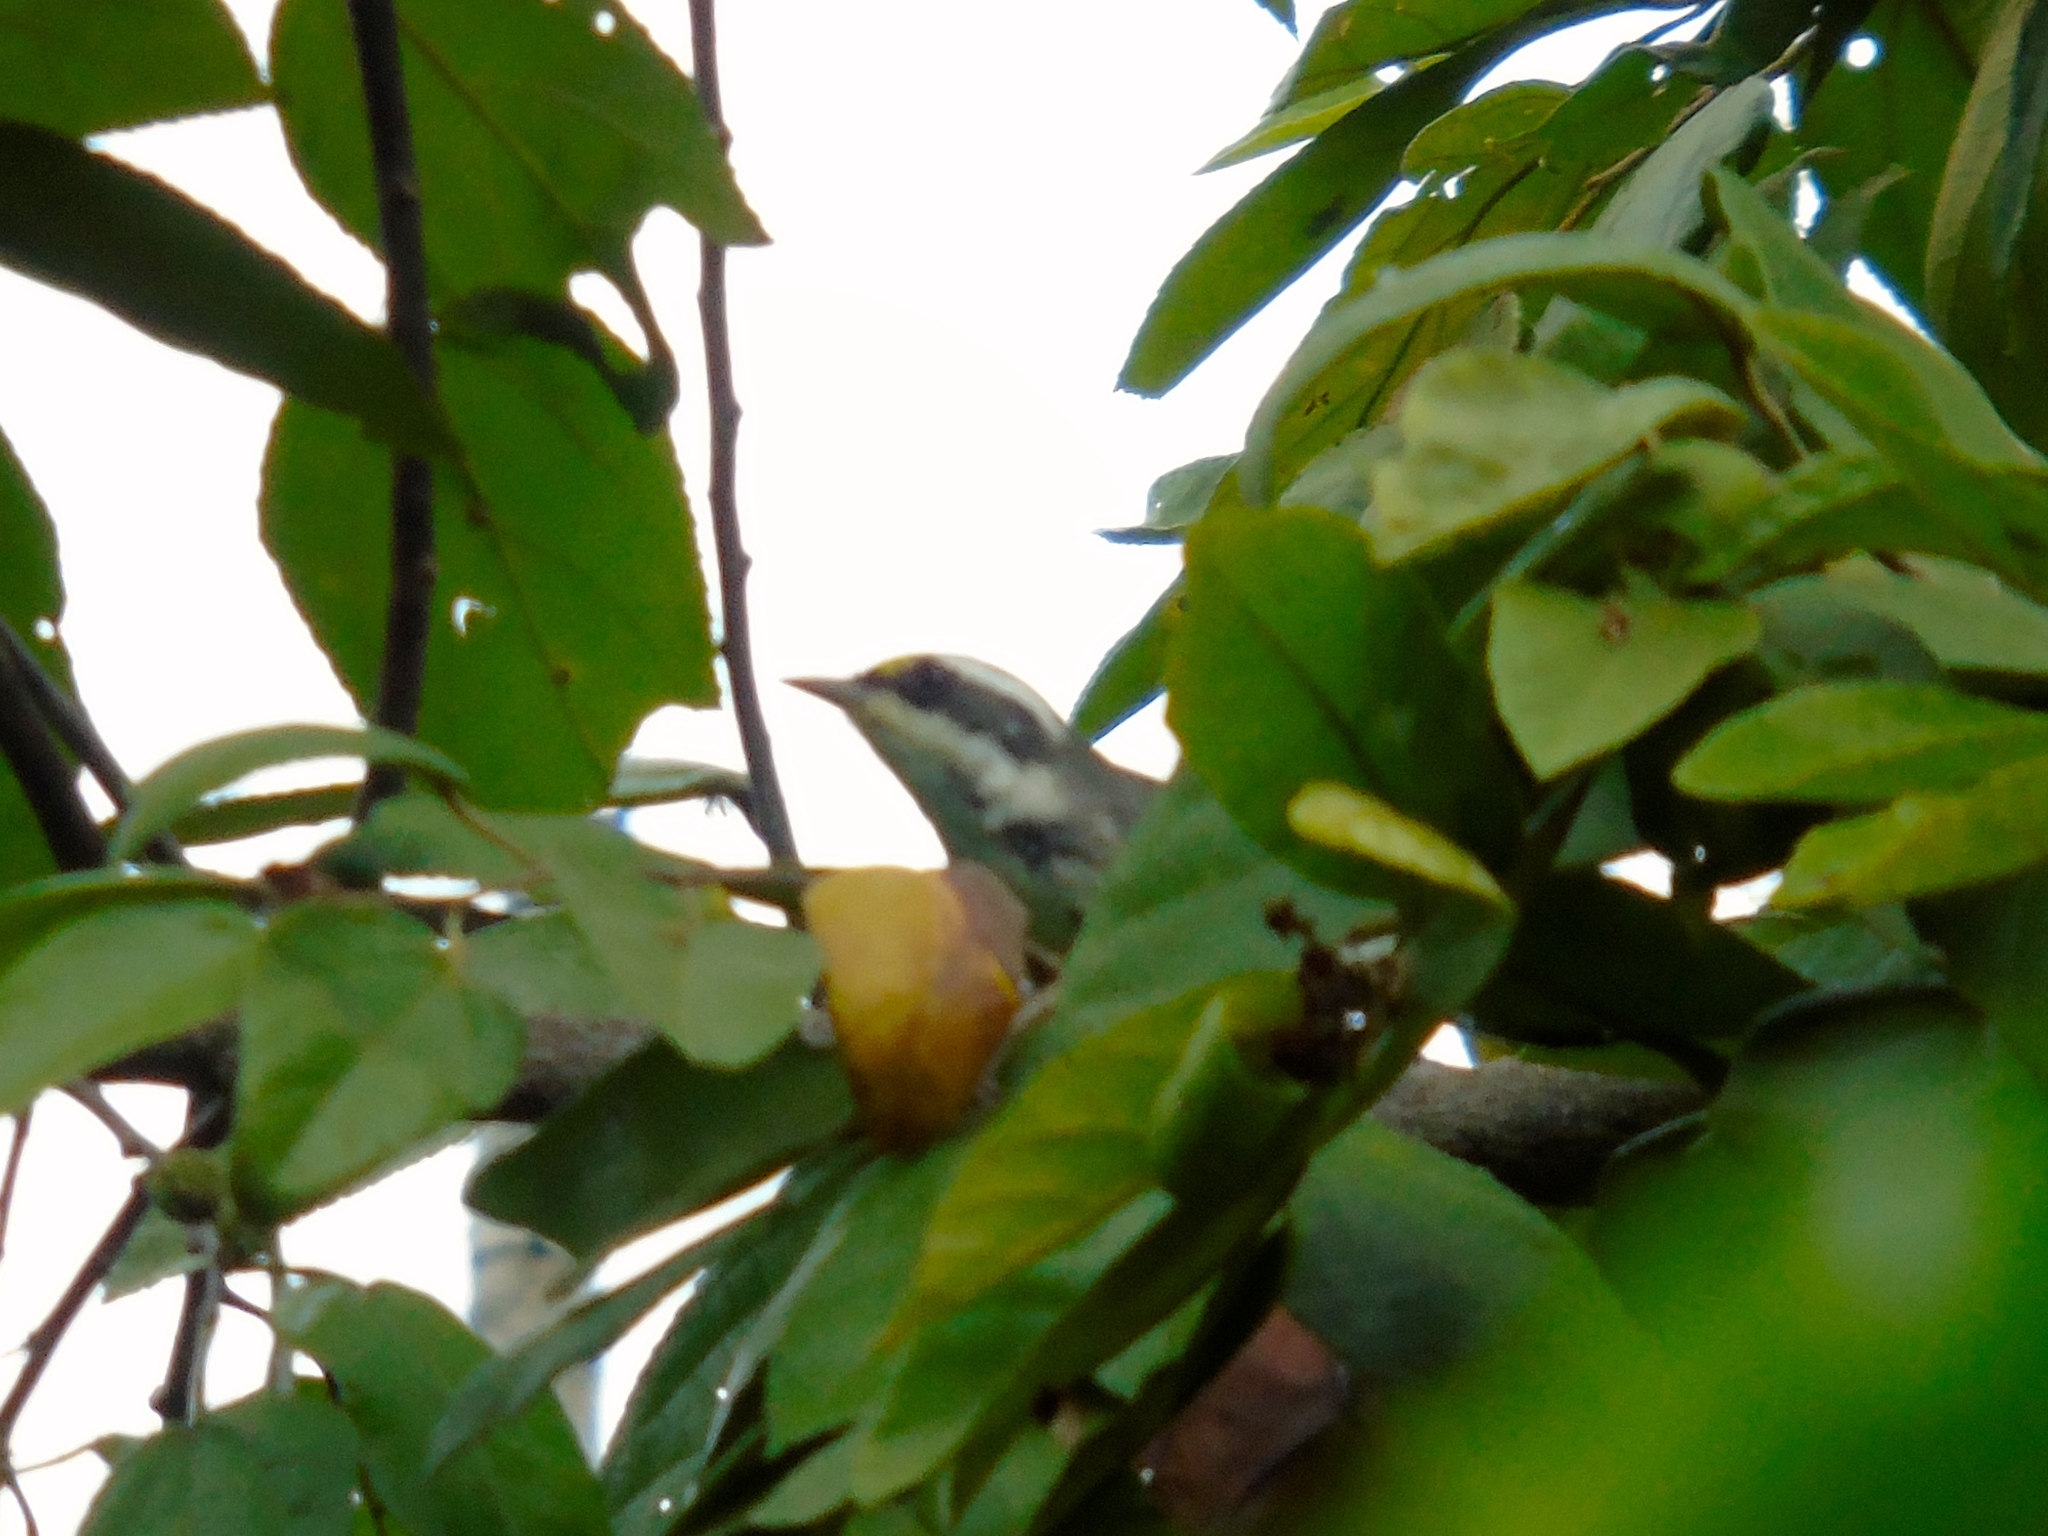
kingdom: Animalia
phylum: Chordata
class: Aves
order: Passeriformes
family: Parulidae
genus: Setophaga
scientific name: Setophaga nigrescens
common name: Black-throated gray warbler
